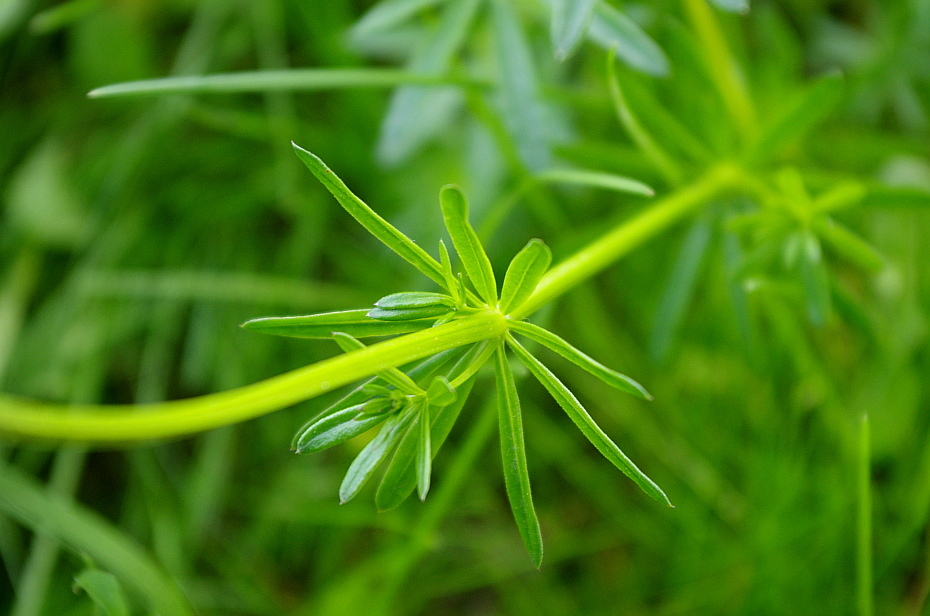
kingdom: Plantae
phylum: Tracheophyta
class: Magnoliopsida
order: Gentianales
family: Rubiaceae
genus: Galium
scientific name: Galium mollugo
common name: Hedge bedstraw
